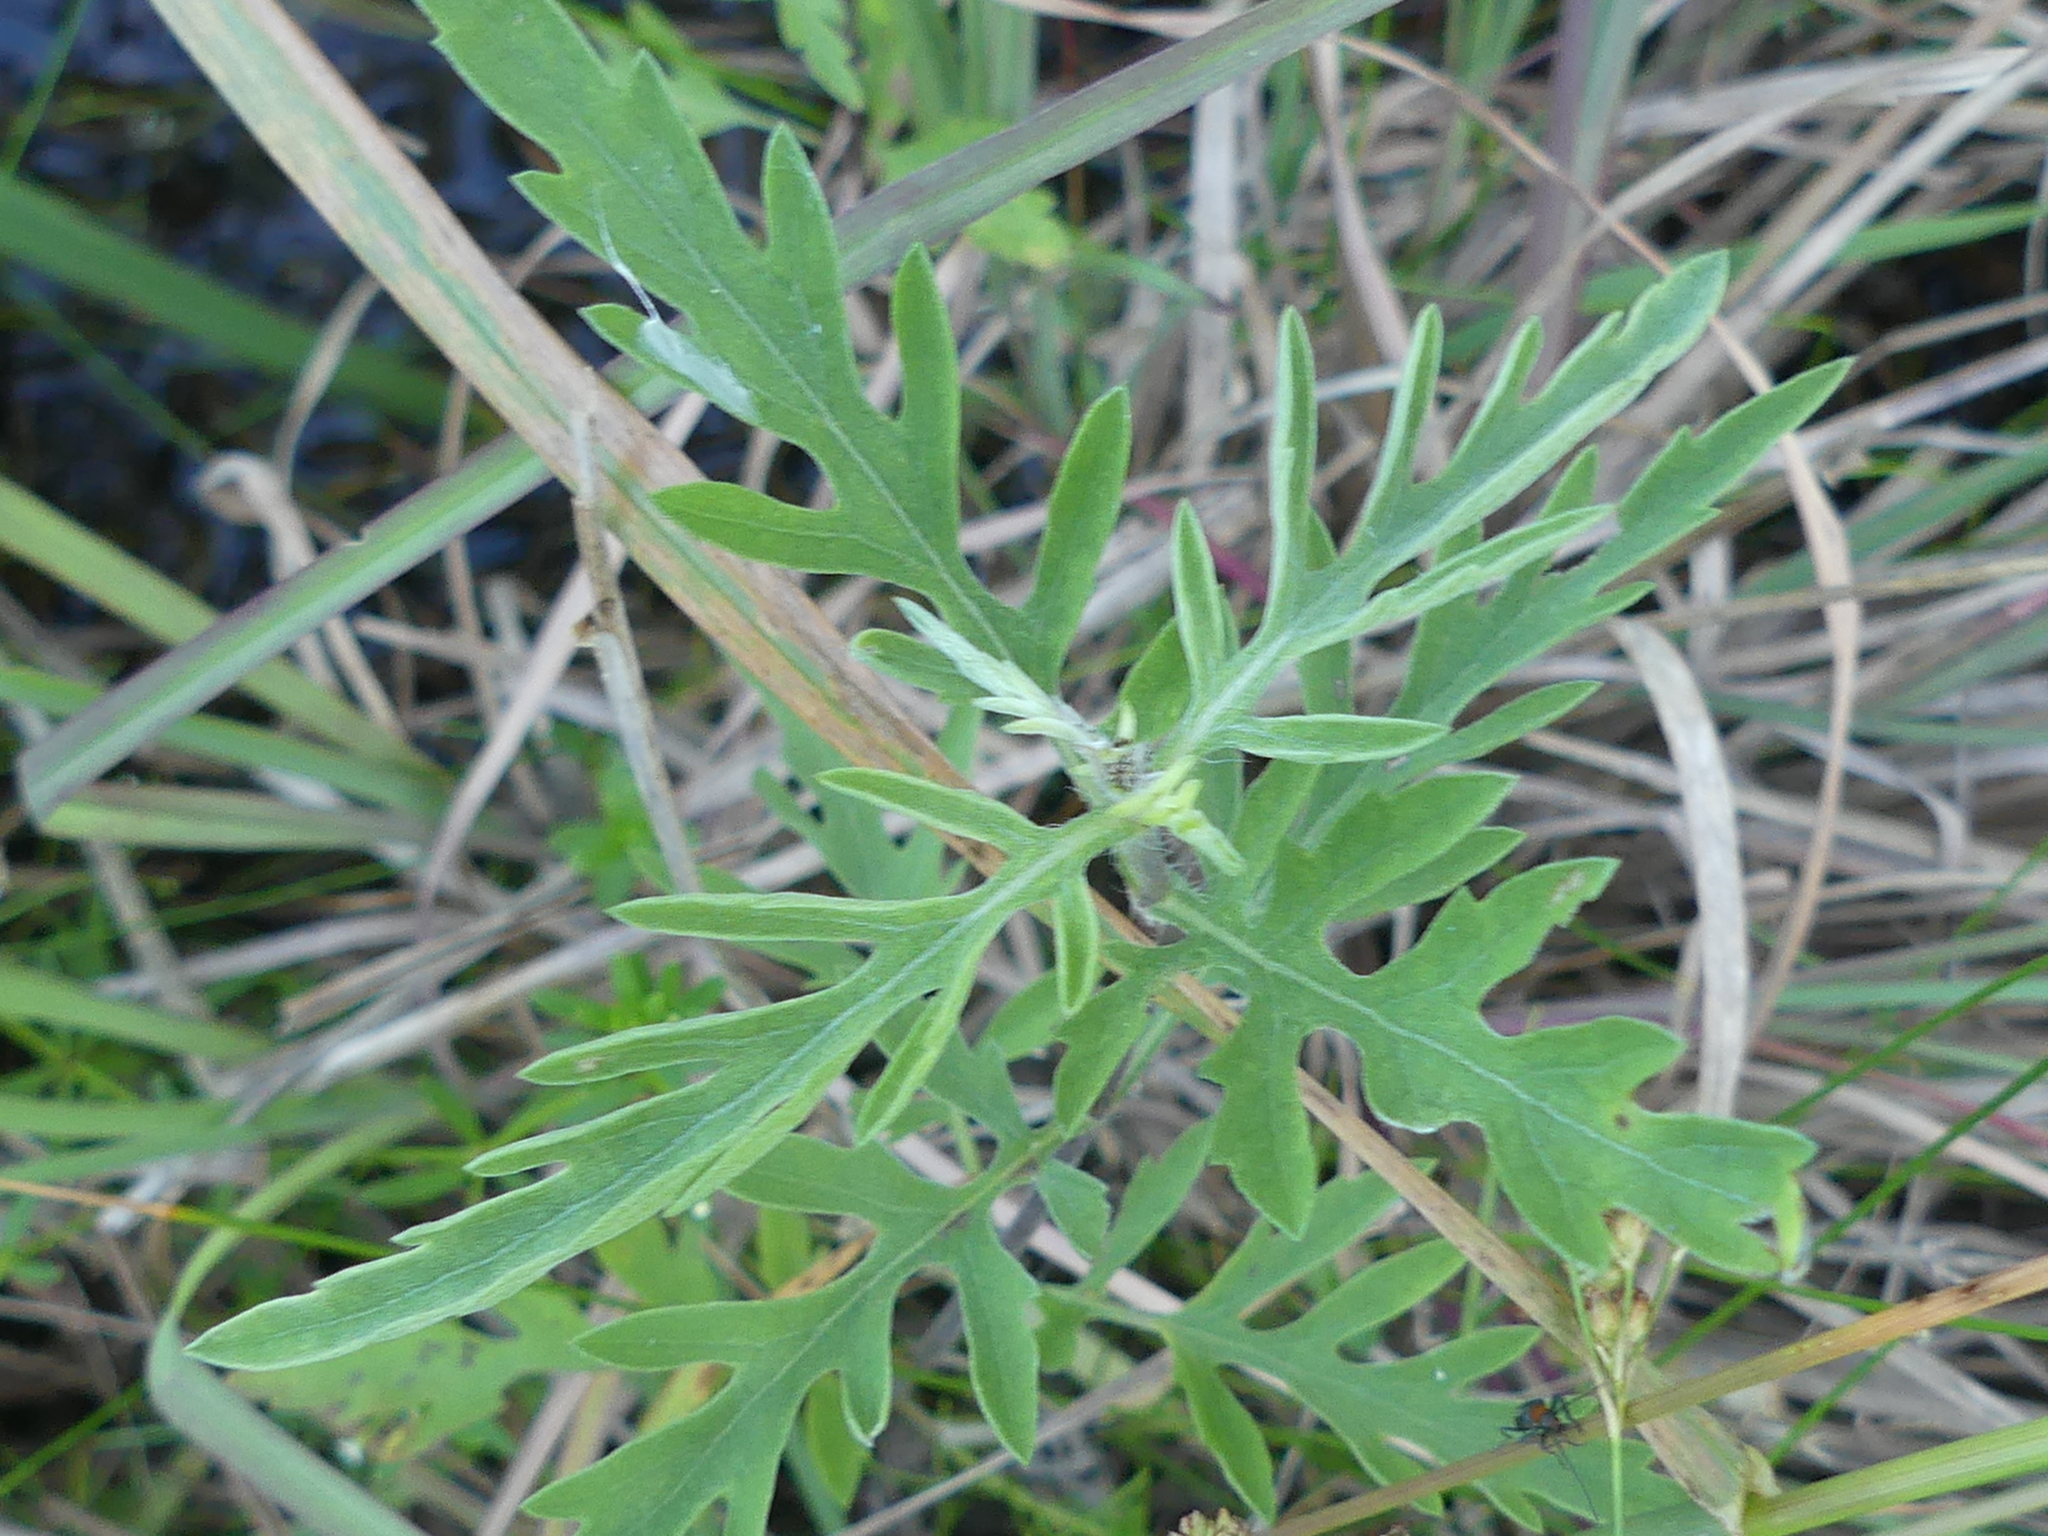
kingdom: Plantae
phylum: Tracheophyta
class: Magnoliopsida
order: Asterales
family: Asteraceae
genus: Ambrosia
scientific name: Ambrosia psilostachya
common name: Perennial ragweed
